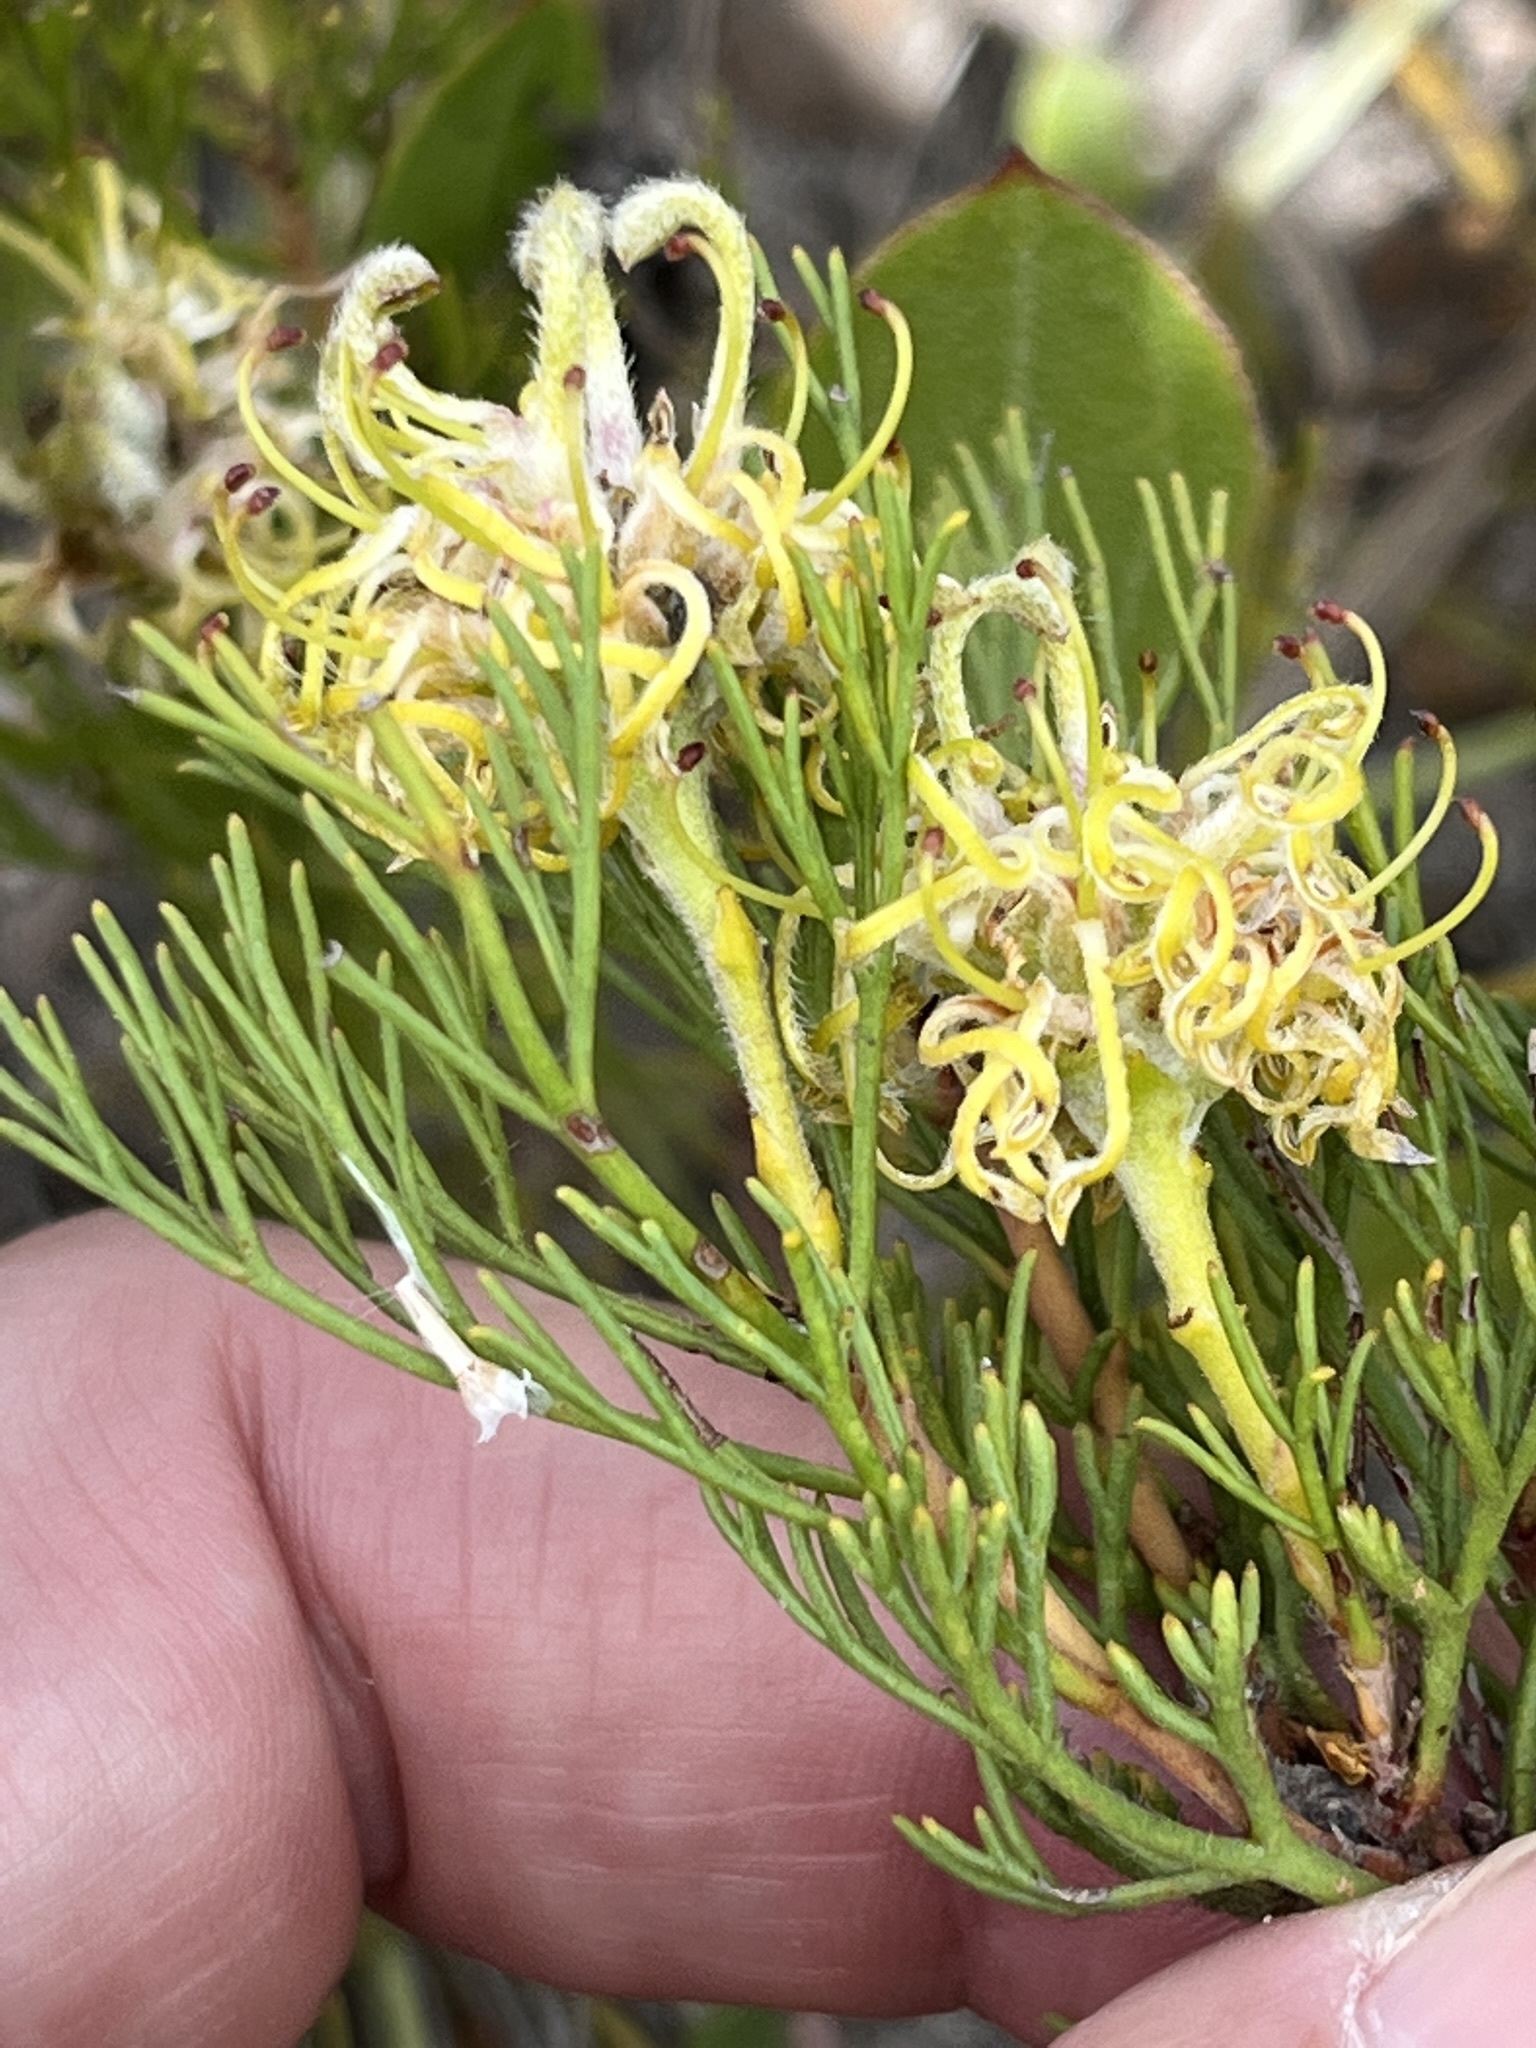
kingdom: Plantae
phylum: Tracheophyta
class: Magnoliopsida
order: Proteales
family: Proteaceae
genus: Serruria
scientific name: Serruria
